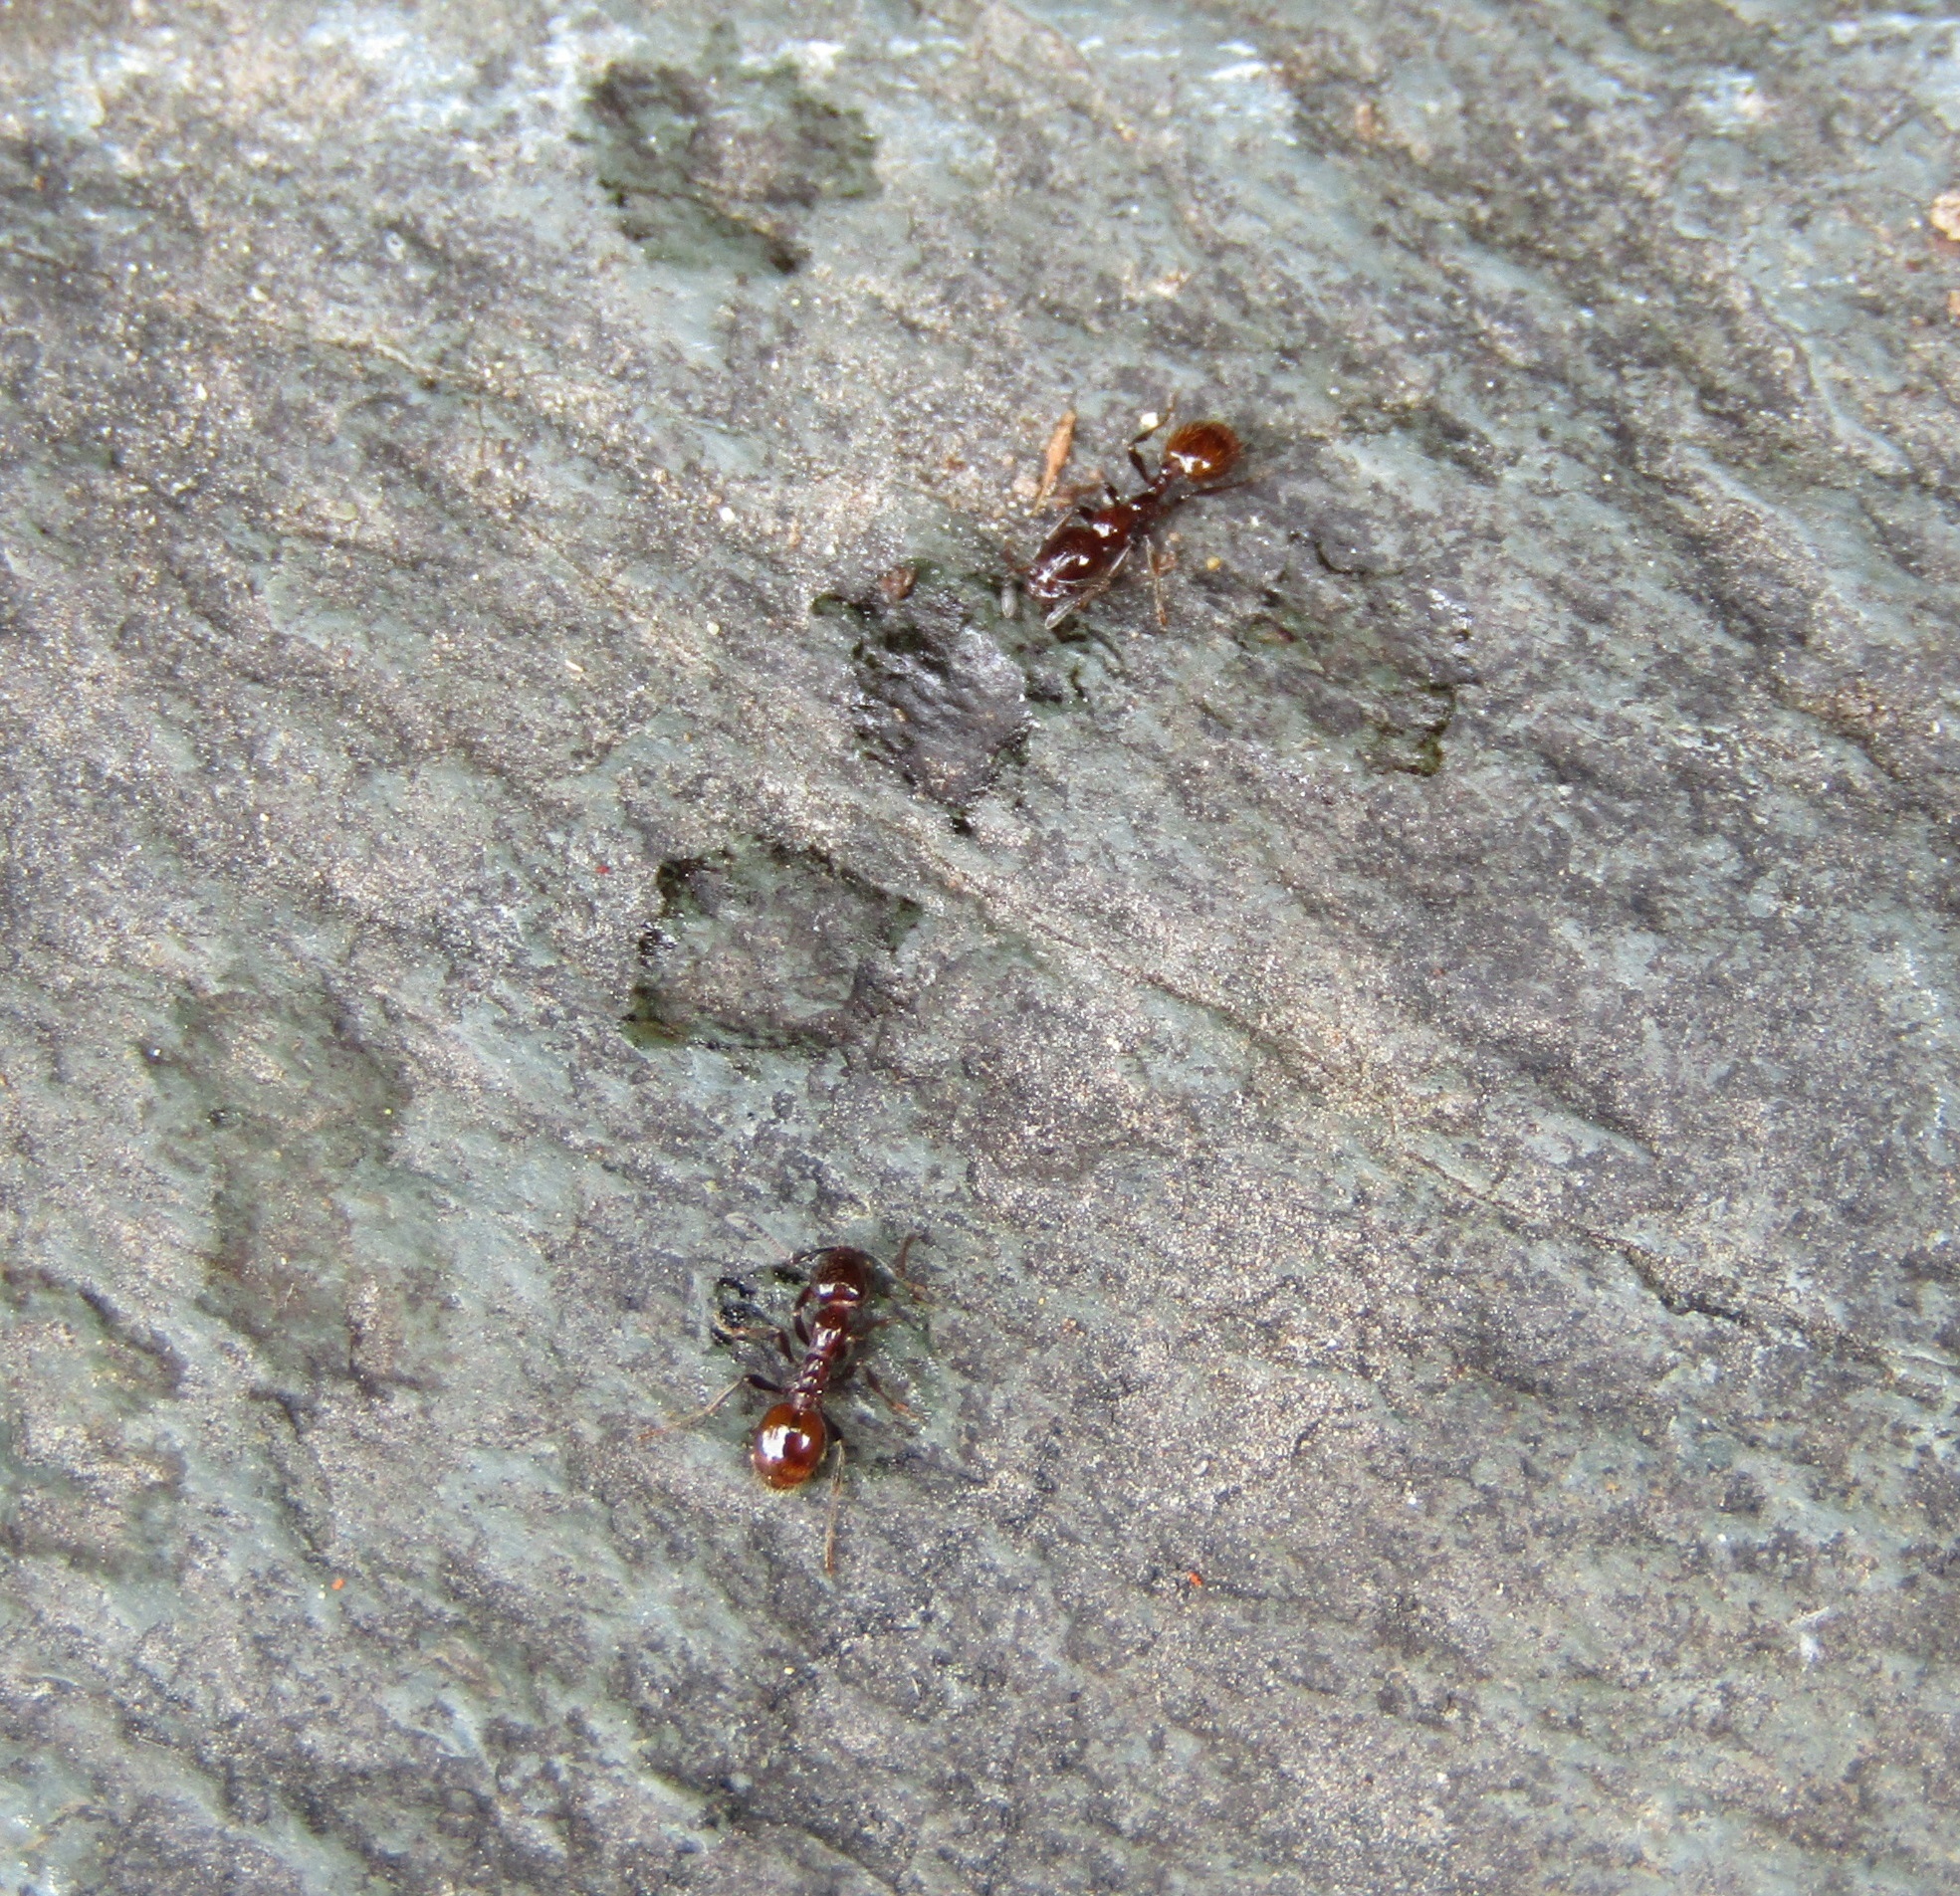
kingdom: Animalia
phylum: Arthropoda
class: Insecta
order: Hymenoptera
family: Formicidae
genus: Monomorium
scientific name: Monomorium antarcticum
